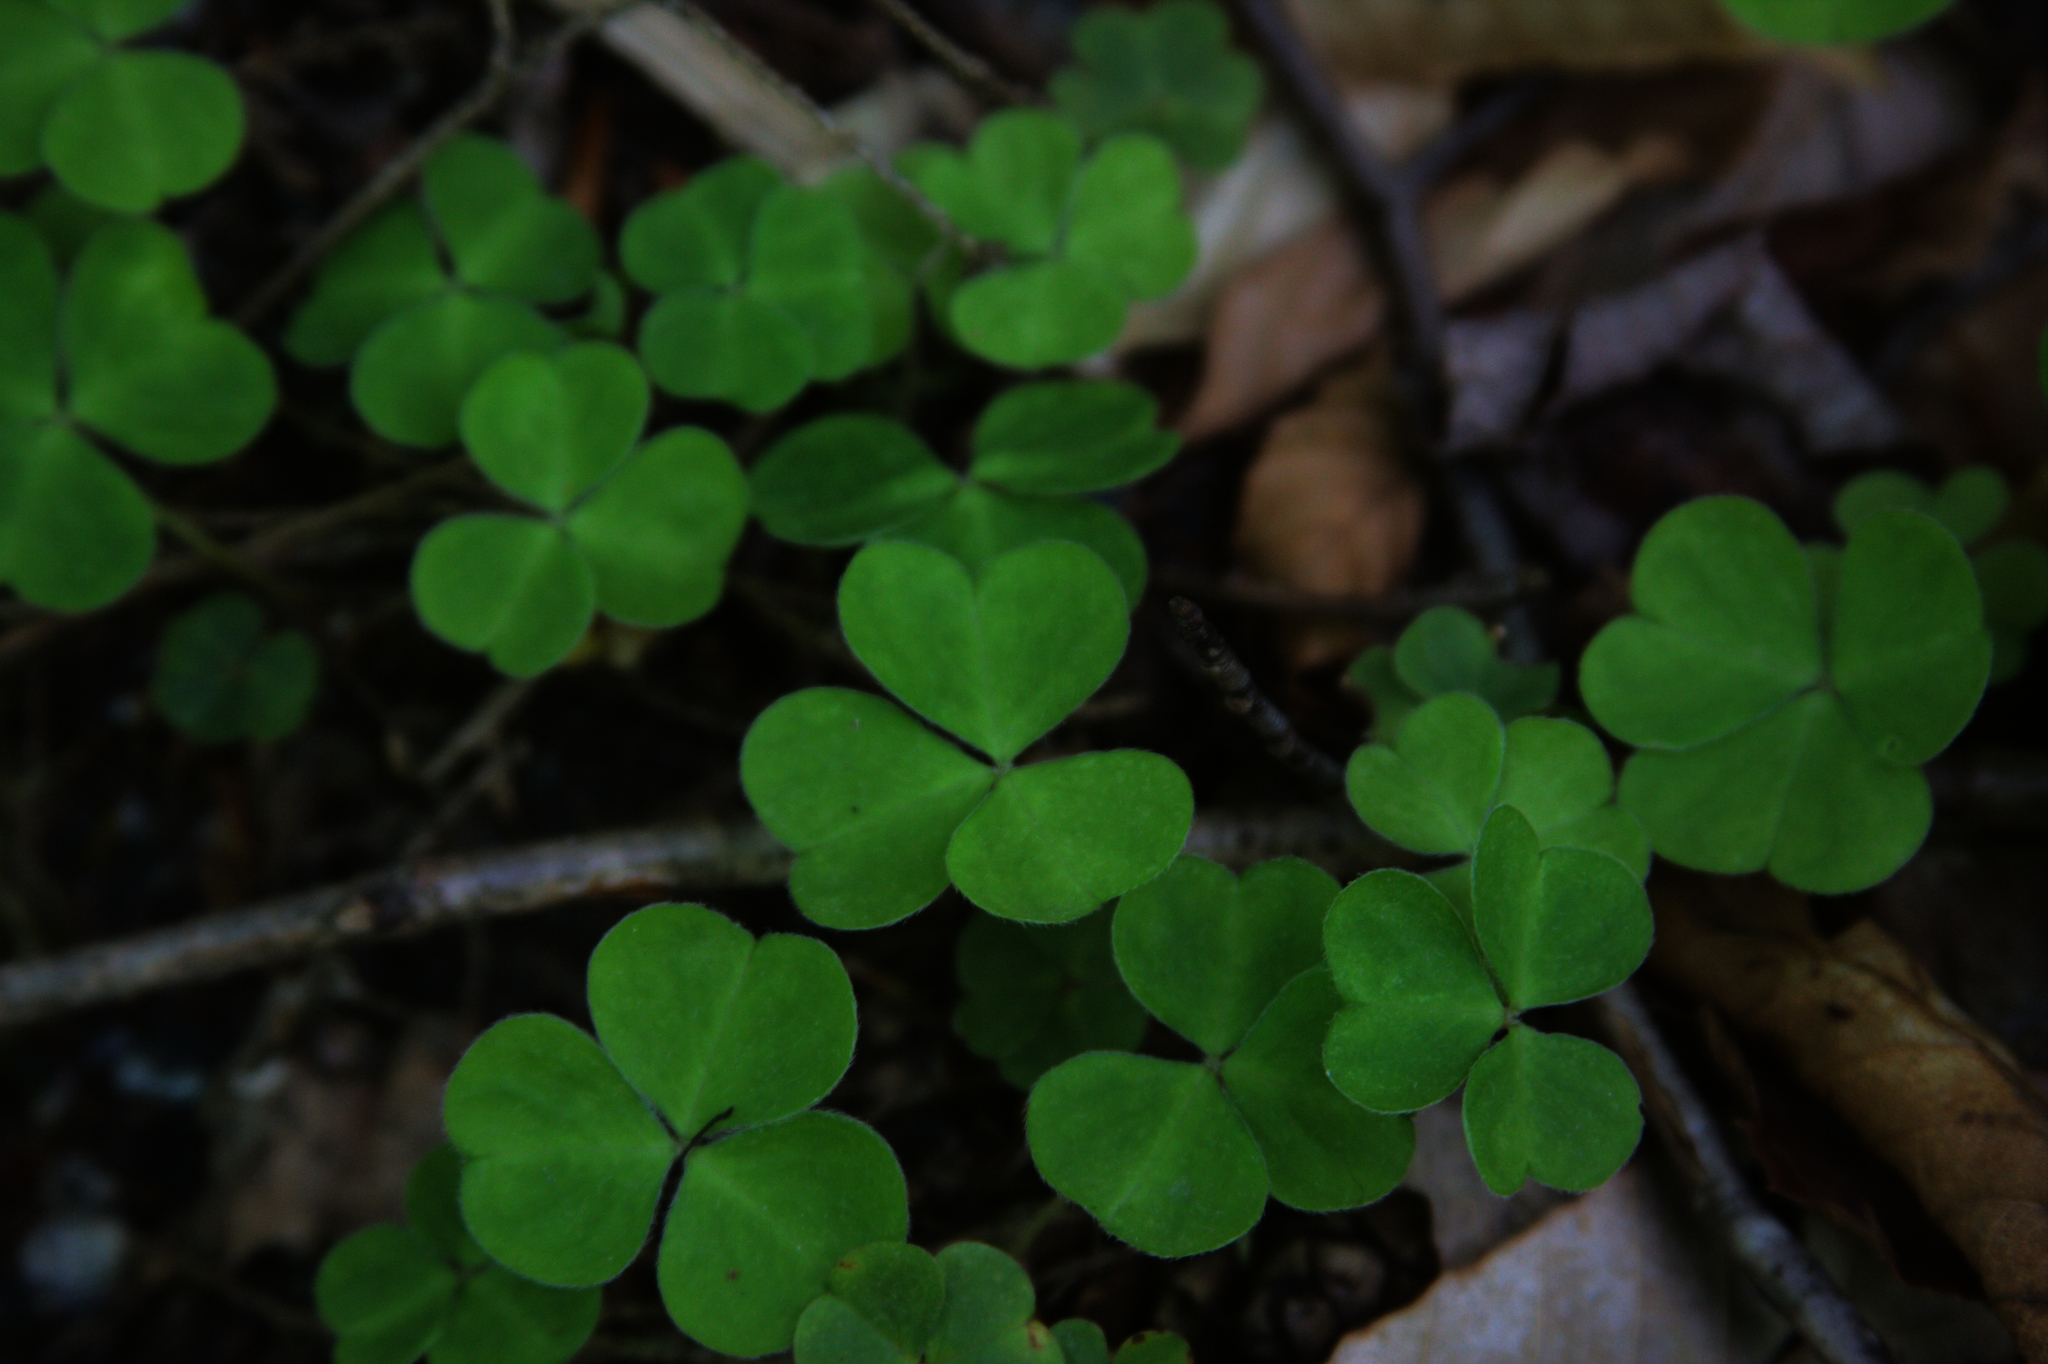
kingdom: Plantae
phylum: Tracheophyta
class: Magnoliopsida
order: Oxalidales
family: Oxalidaceae
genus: Oxalis
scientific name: Oxalis montana
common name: American wood-sorrel
